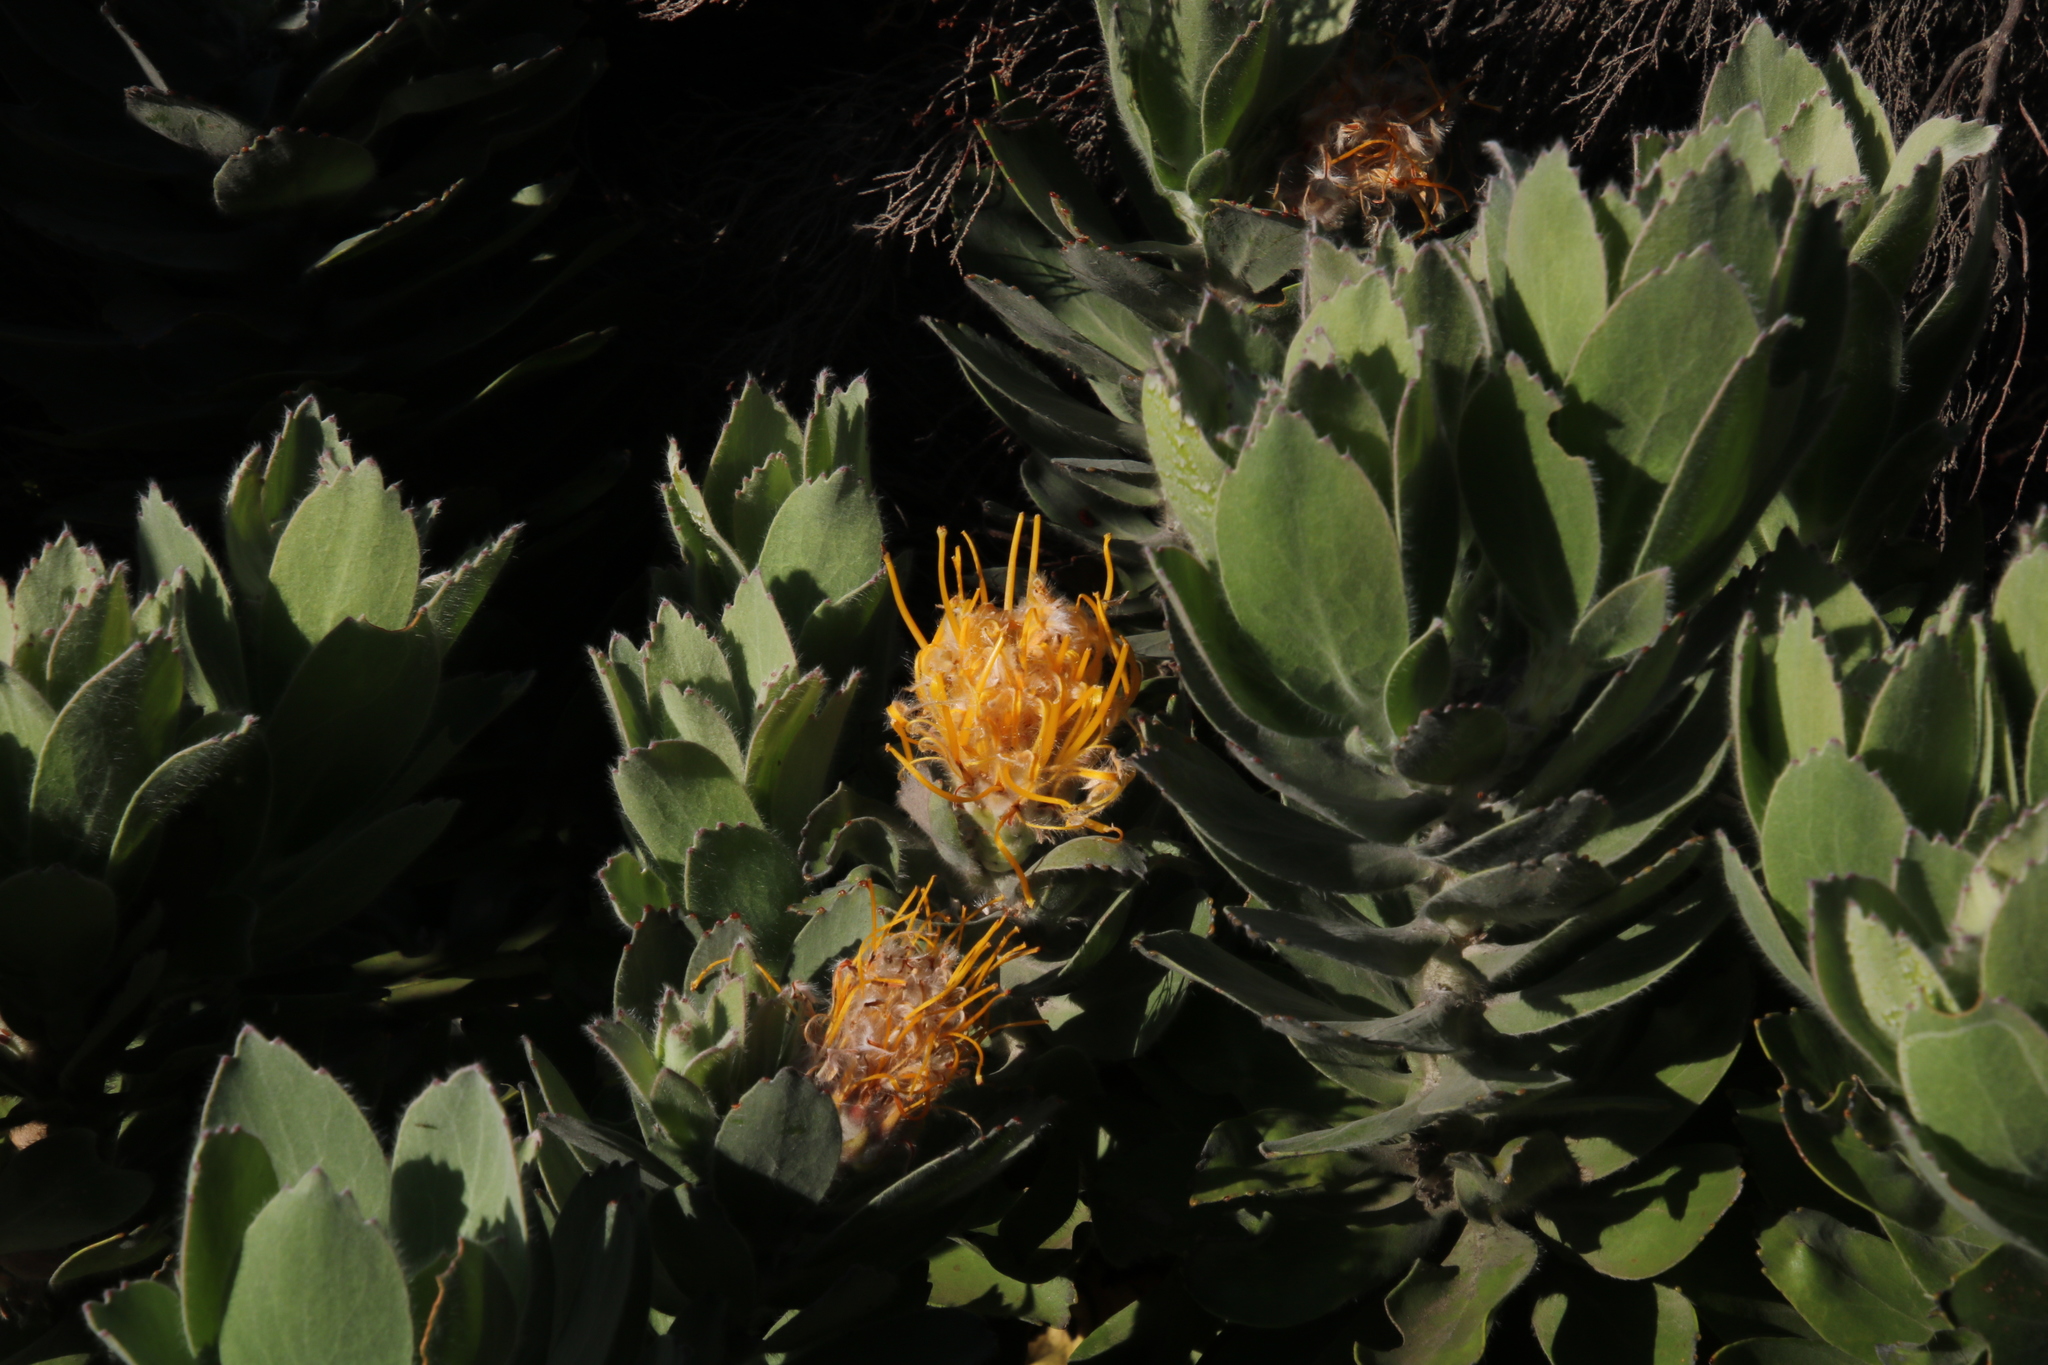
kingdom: Plantae
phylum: Tracheophyta
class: Magnoliopsida
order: Proteales
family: Proteaceae
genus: Leucospermum
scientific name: Leucospermum conocarpodendron
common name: Tree pincushion
